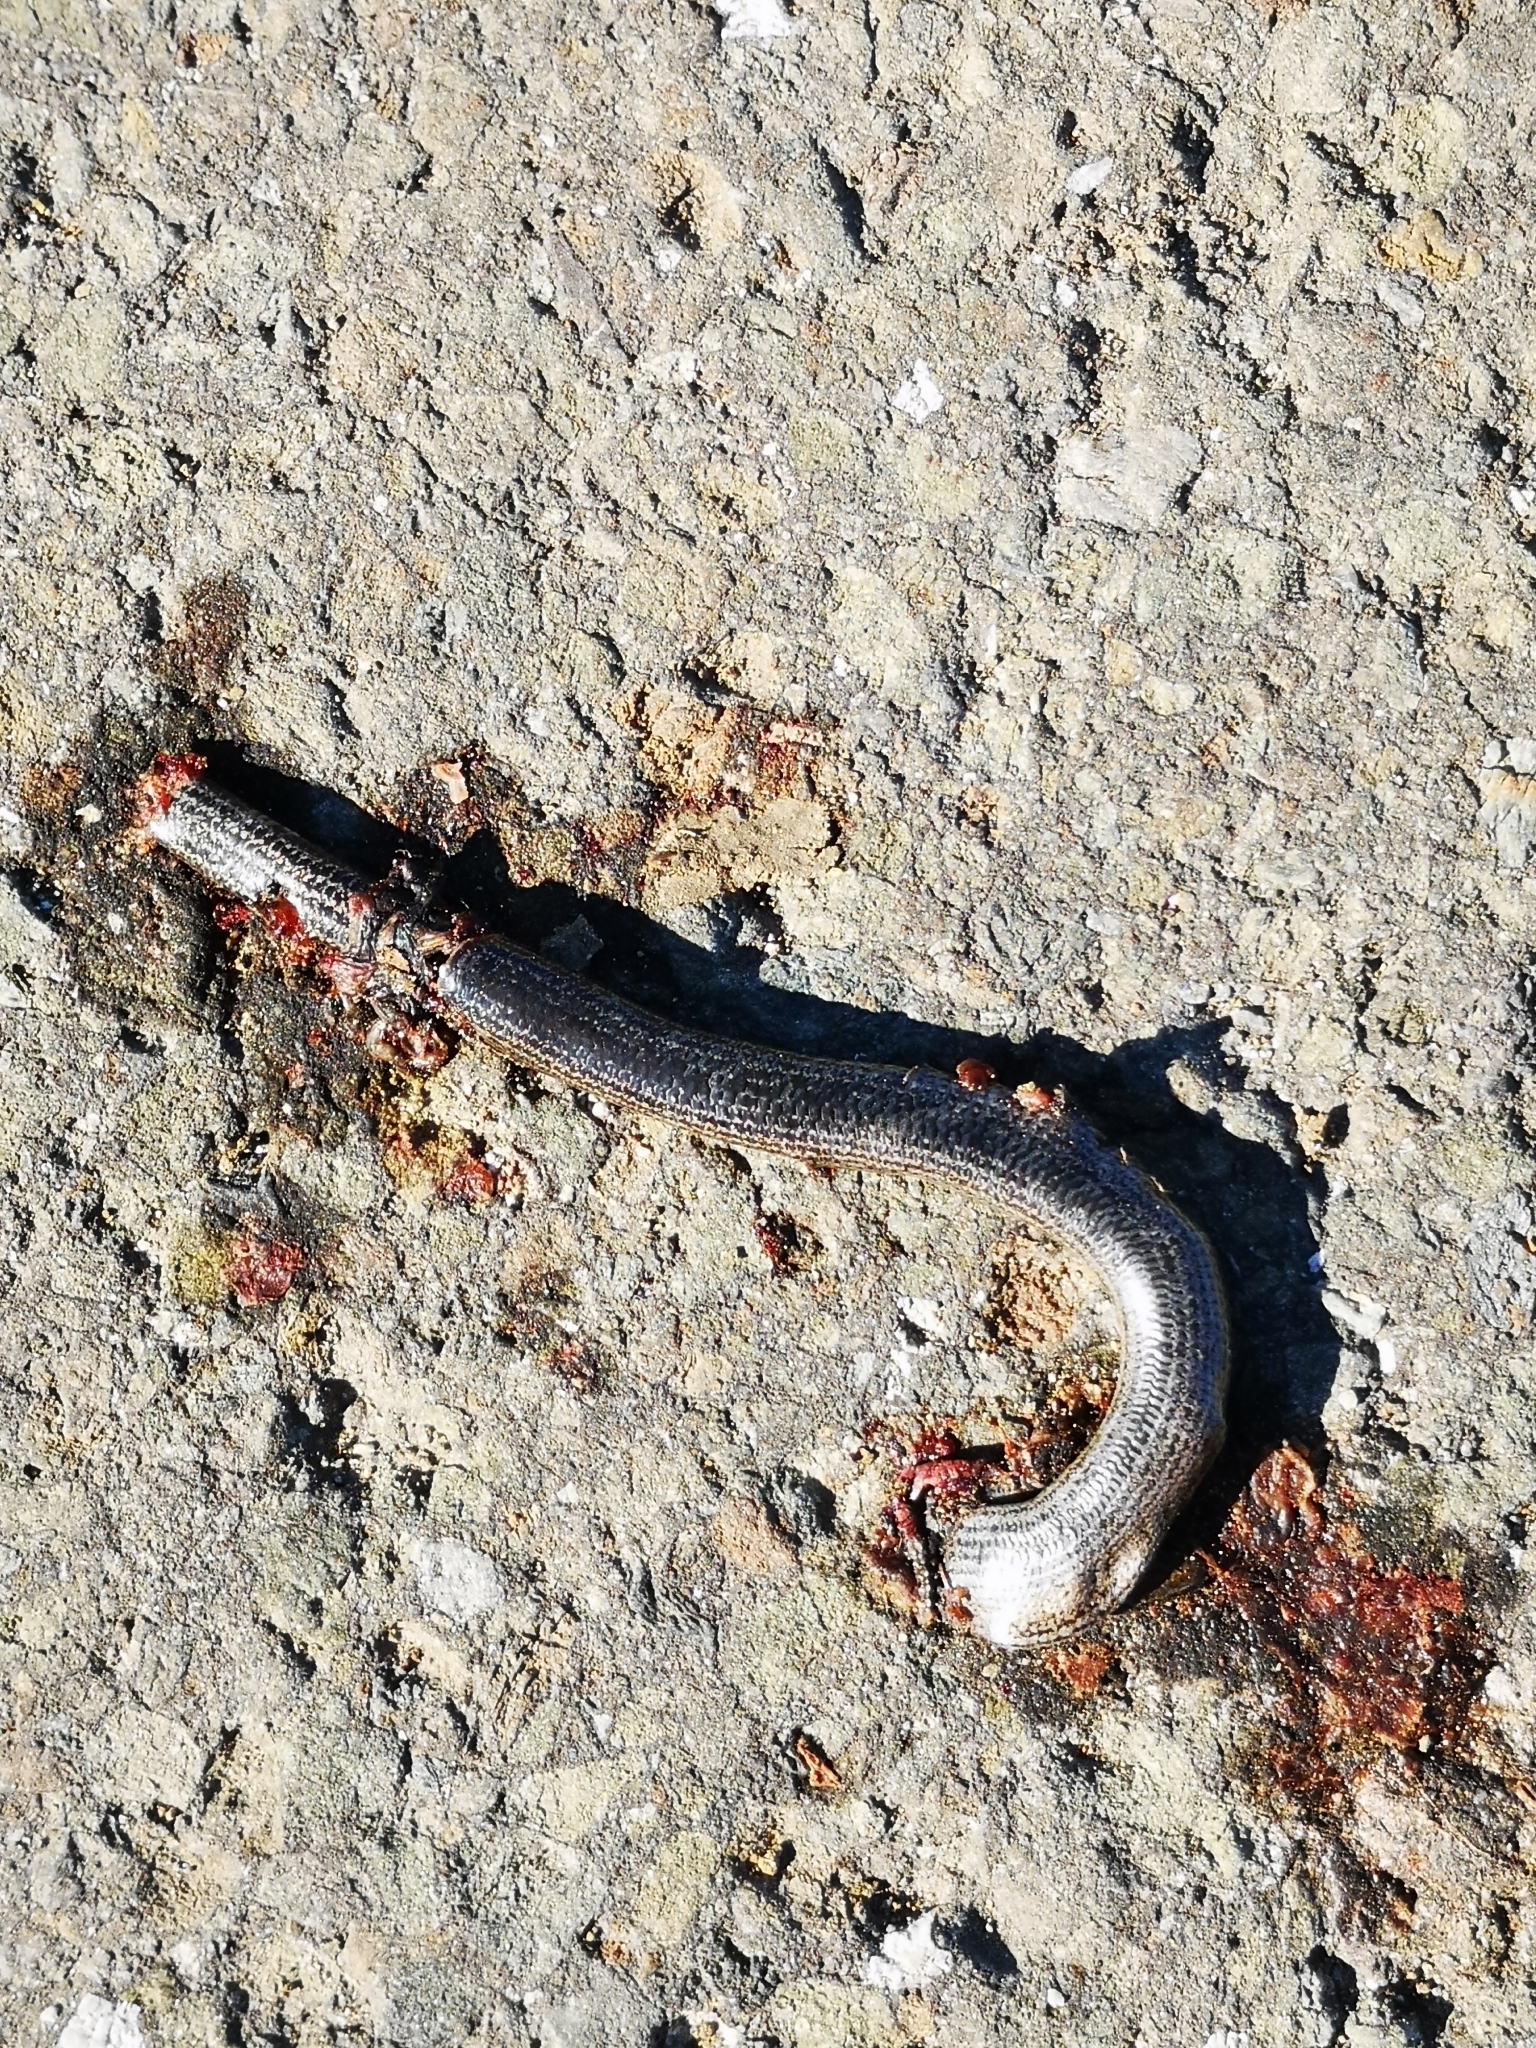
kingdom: Animalia
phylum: Chordata
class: Squamata
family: Anguidae
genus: Anguis
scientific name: Anguis fragilis
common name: Slow worm
